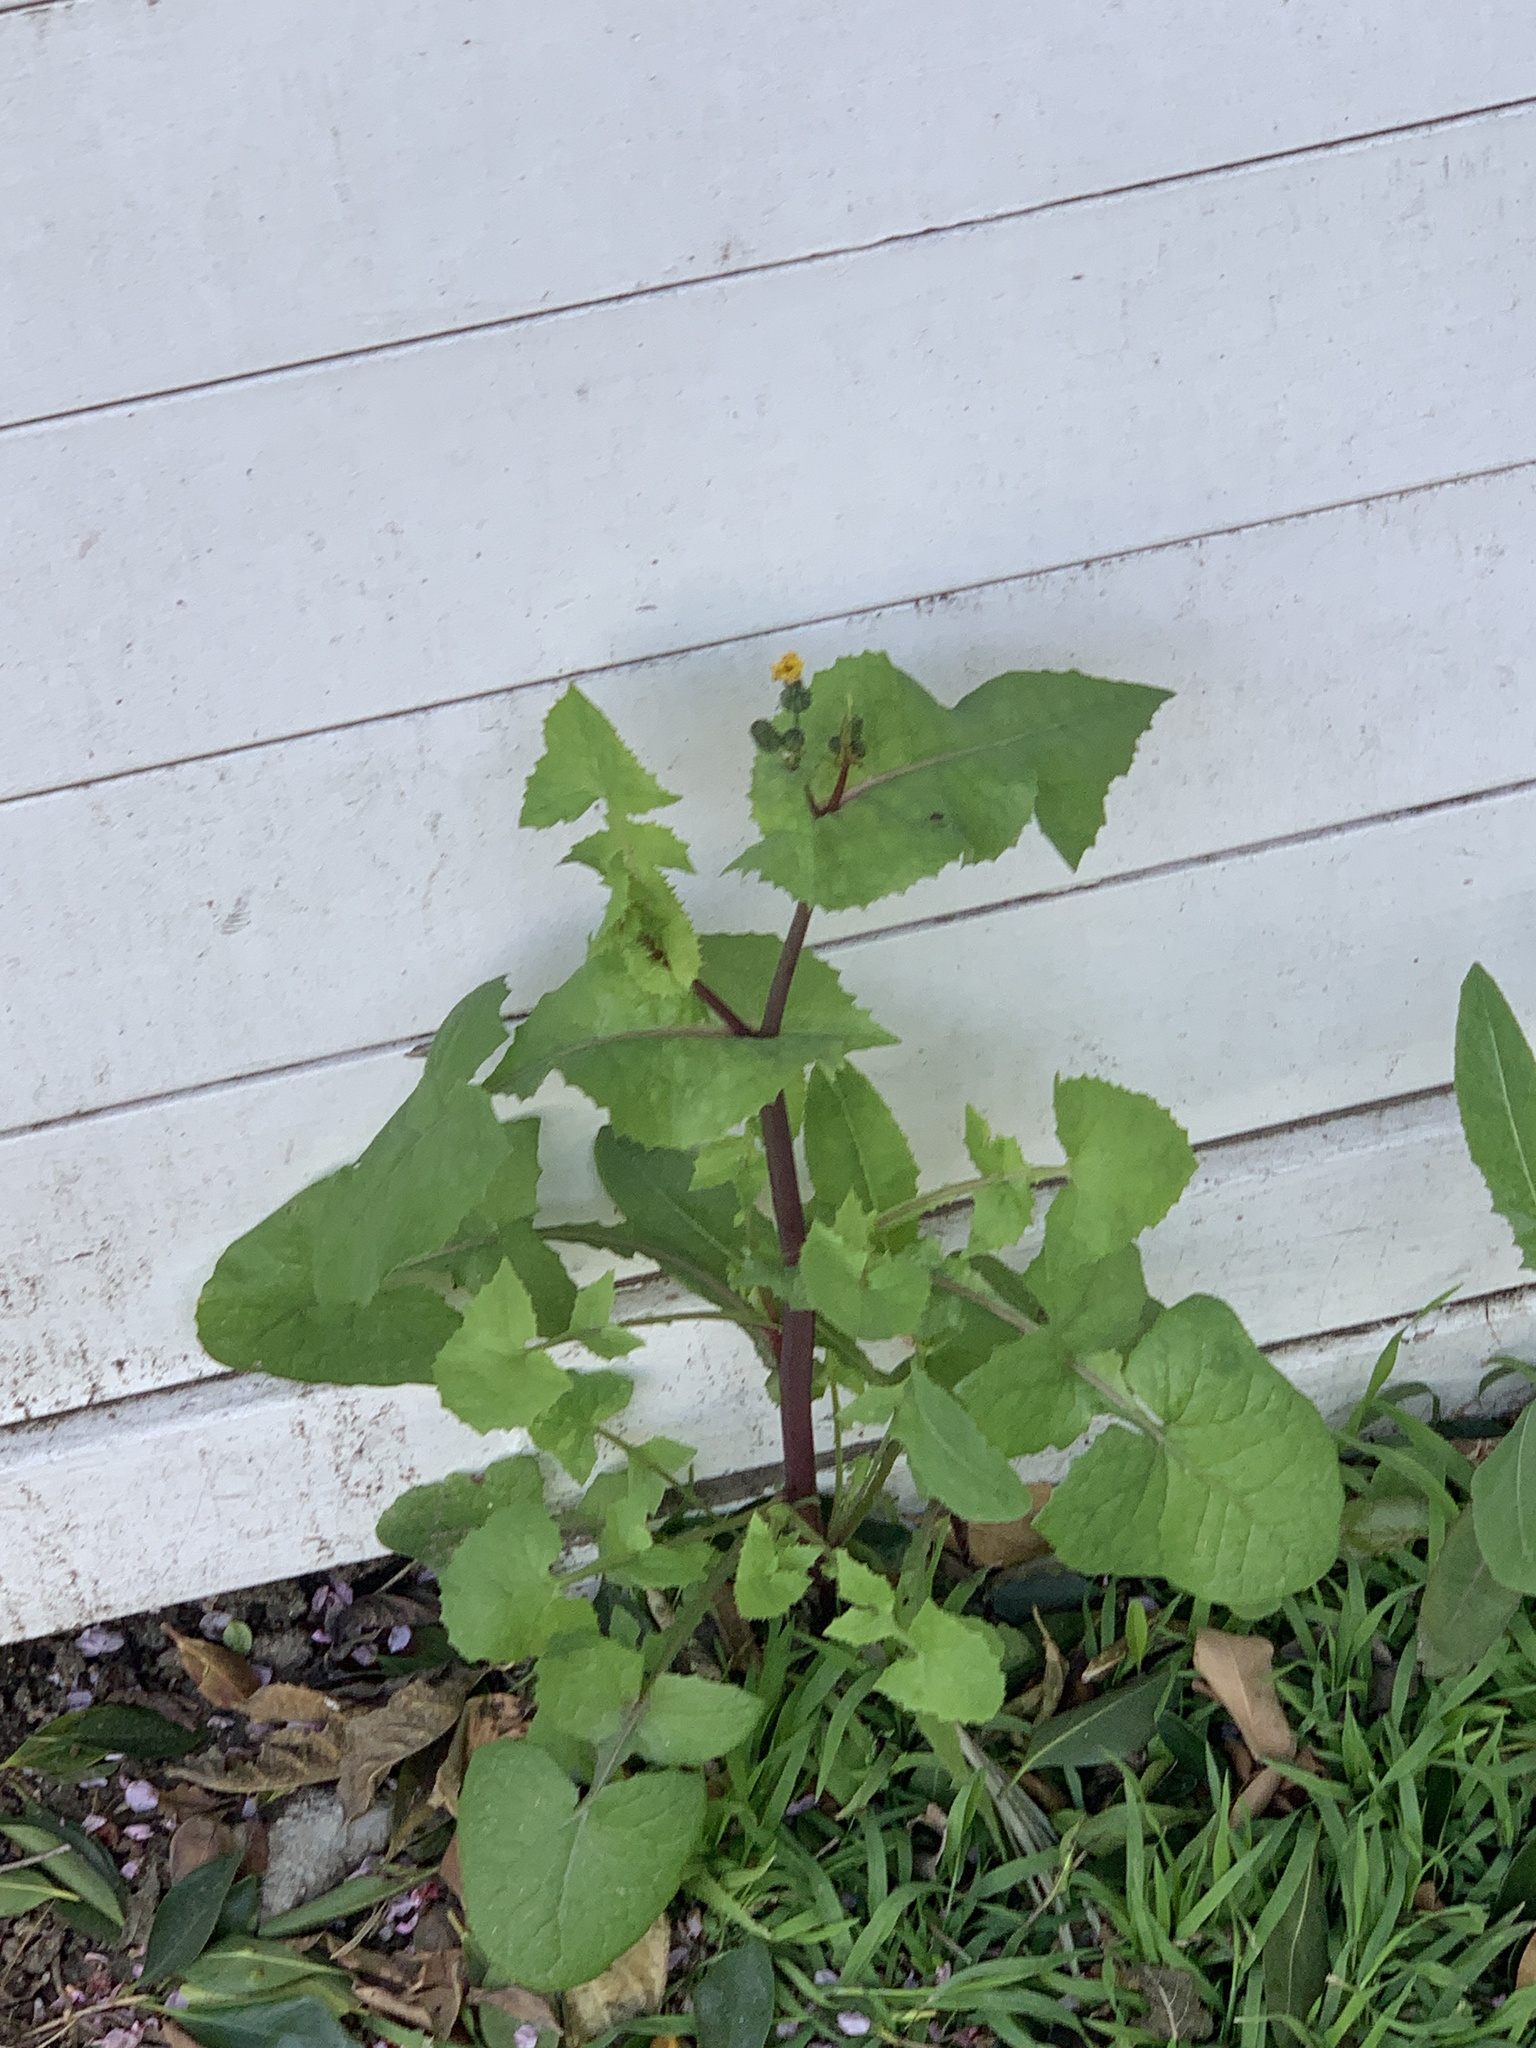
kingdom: Plantae
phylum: Tracheophyta
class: Magnoliopsida
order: Asterales
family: Asteraceae
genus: Sonchus
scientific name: Sonchus oleraceus
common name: Common sowthistle
